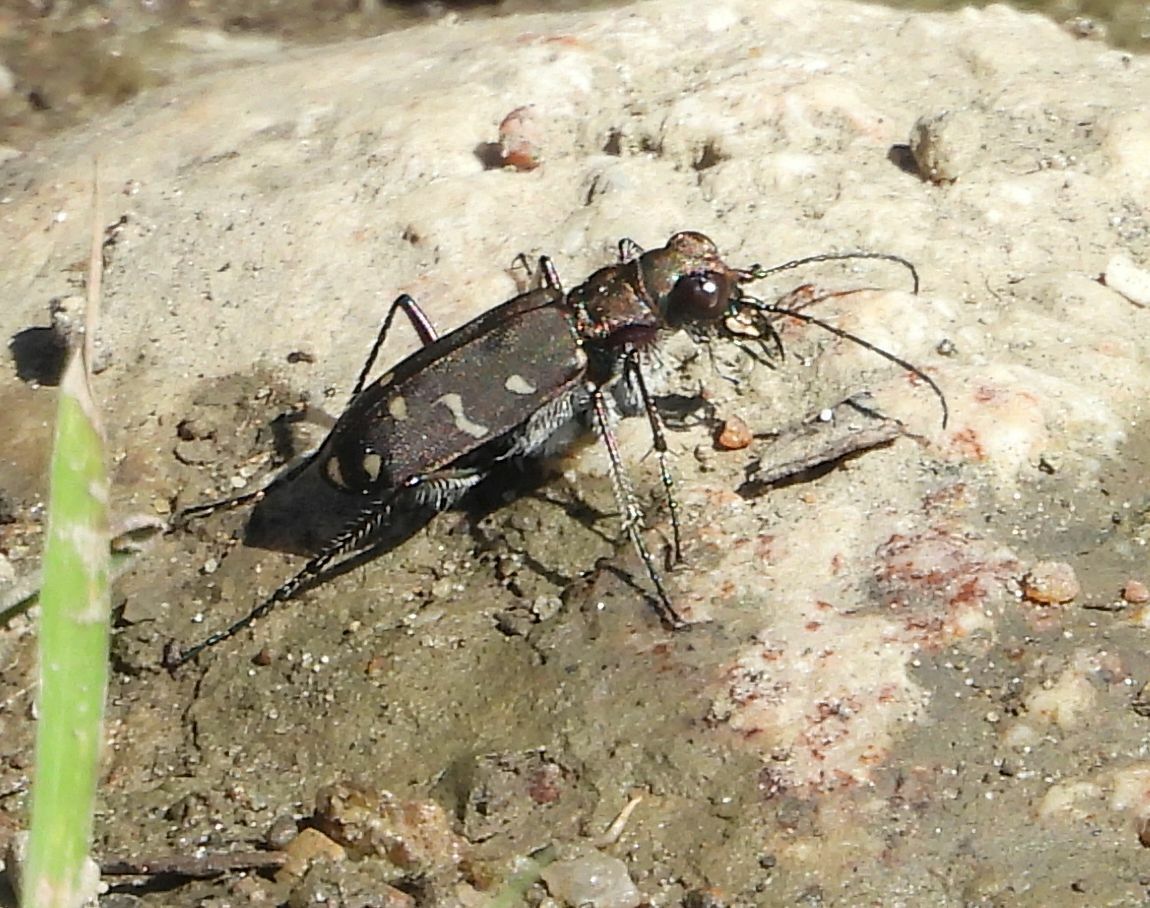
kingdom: Animalia
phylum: Arthropoda
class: Insecta
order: Coleoptera
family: Carabidae
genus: Cicindela
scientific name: Cicindela duodecimguttata
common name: Twelve-spotted tiger beetle
